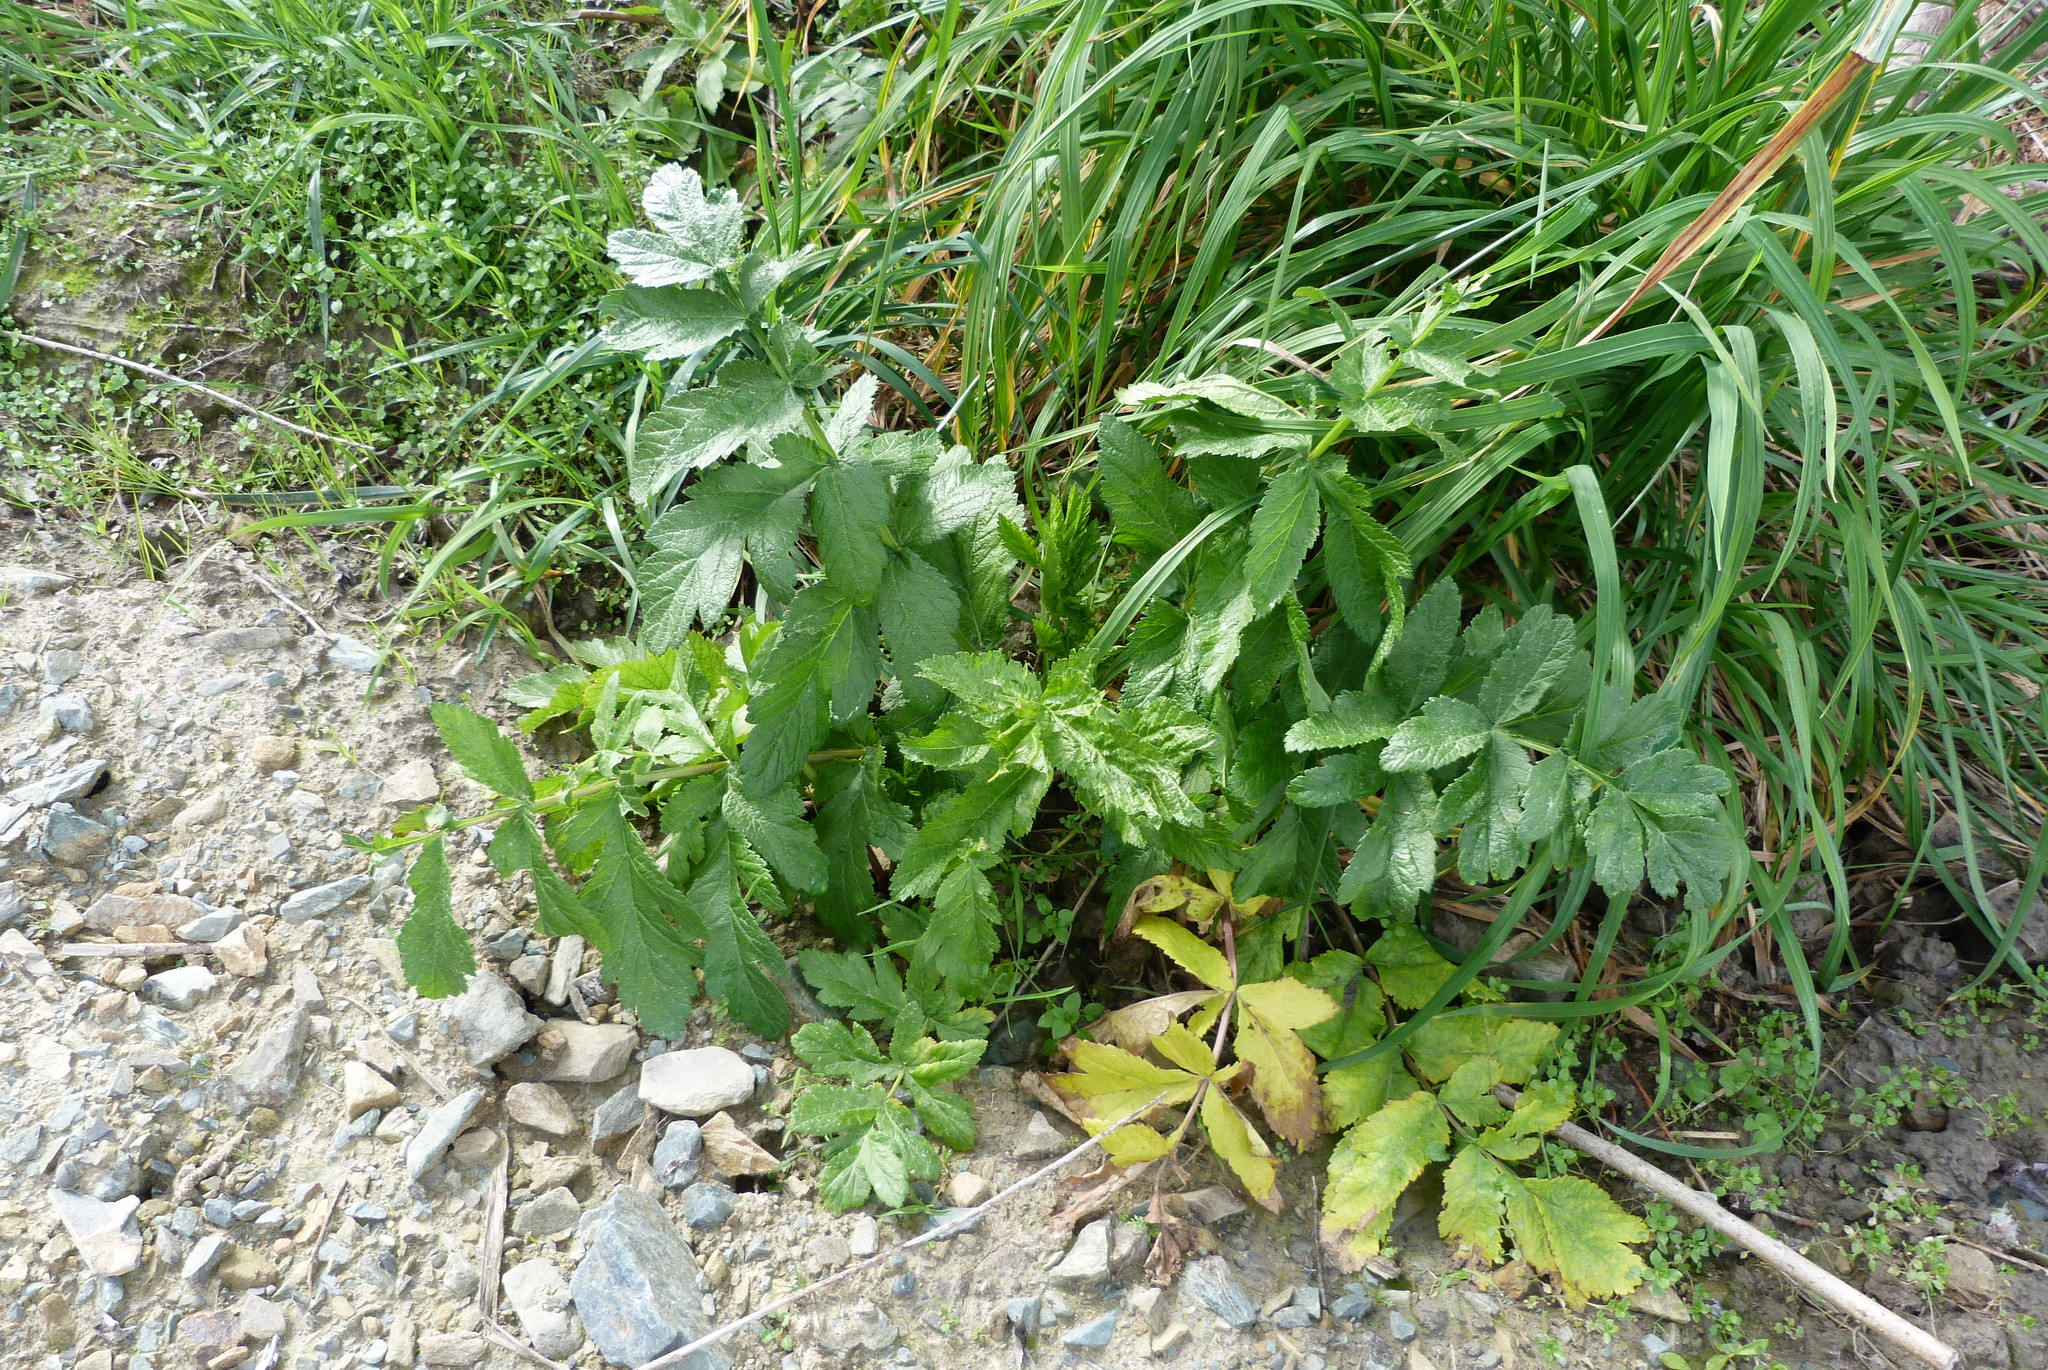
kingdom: Plantae
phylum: Tracheophyta
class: Magnoliopsida
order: Apiales
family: Apiaceae
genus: Pastinaca
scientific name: Pastinaca sativa
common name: Wild parsnip
